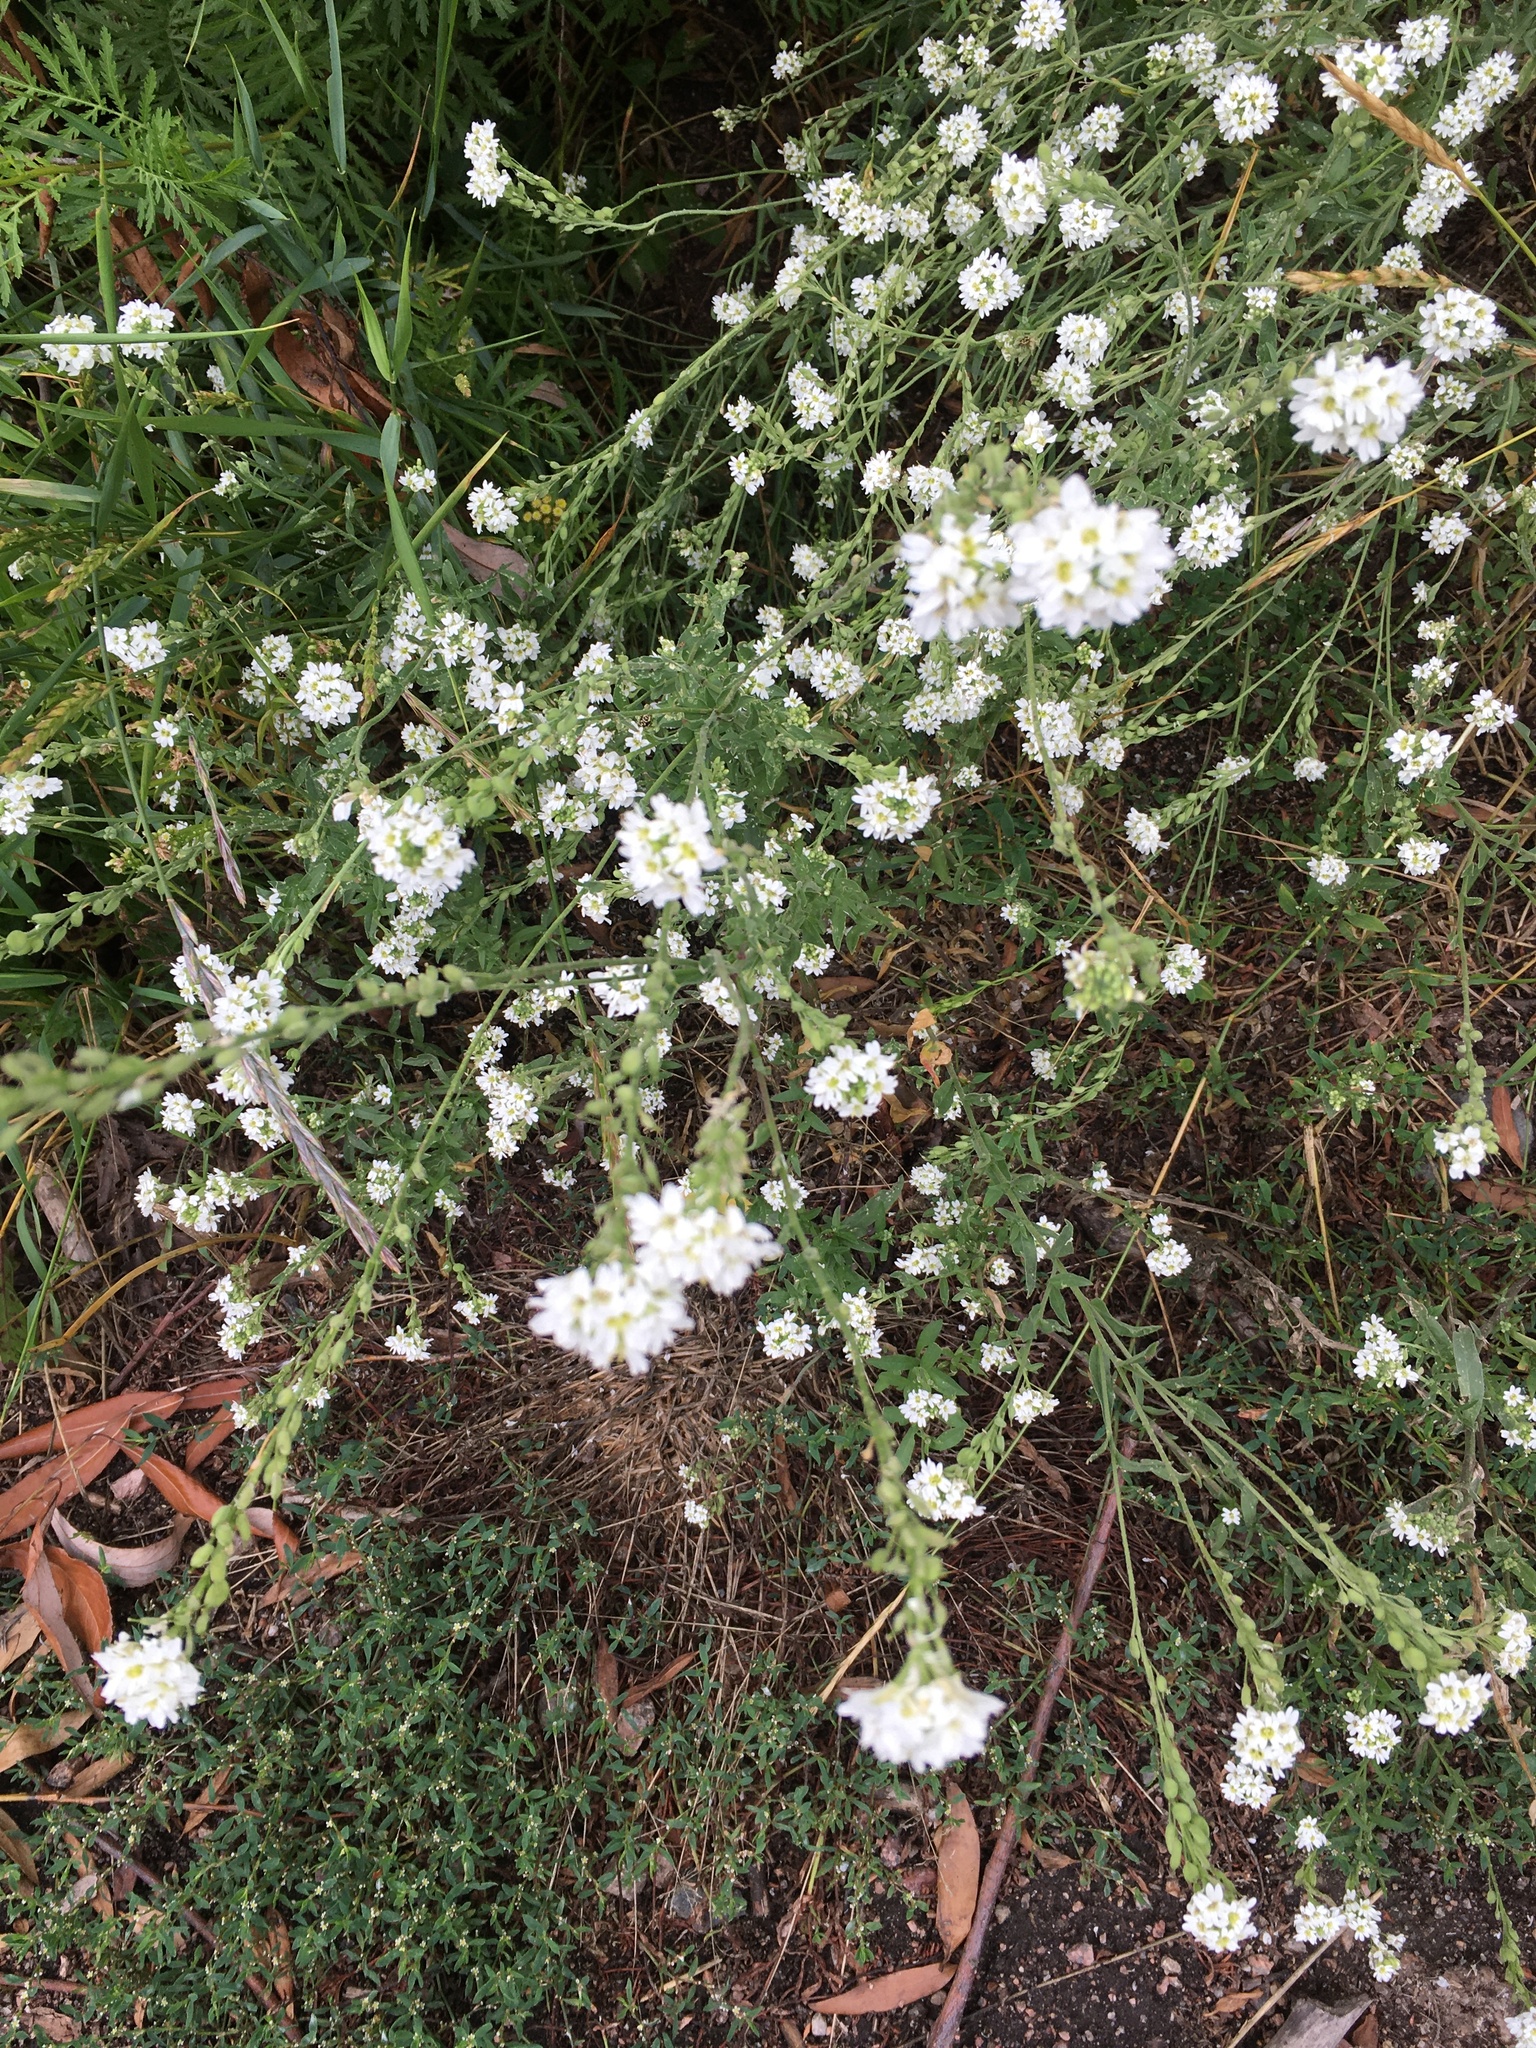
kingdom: Plantae
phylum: Tracheophyta
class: Magnoliopsida
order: Brassicales
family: Brassicaceae
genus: Berteroa
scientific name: Berteroa incana
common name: Hoary alison
